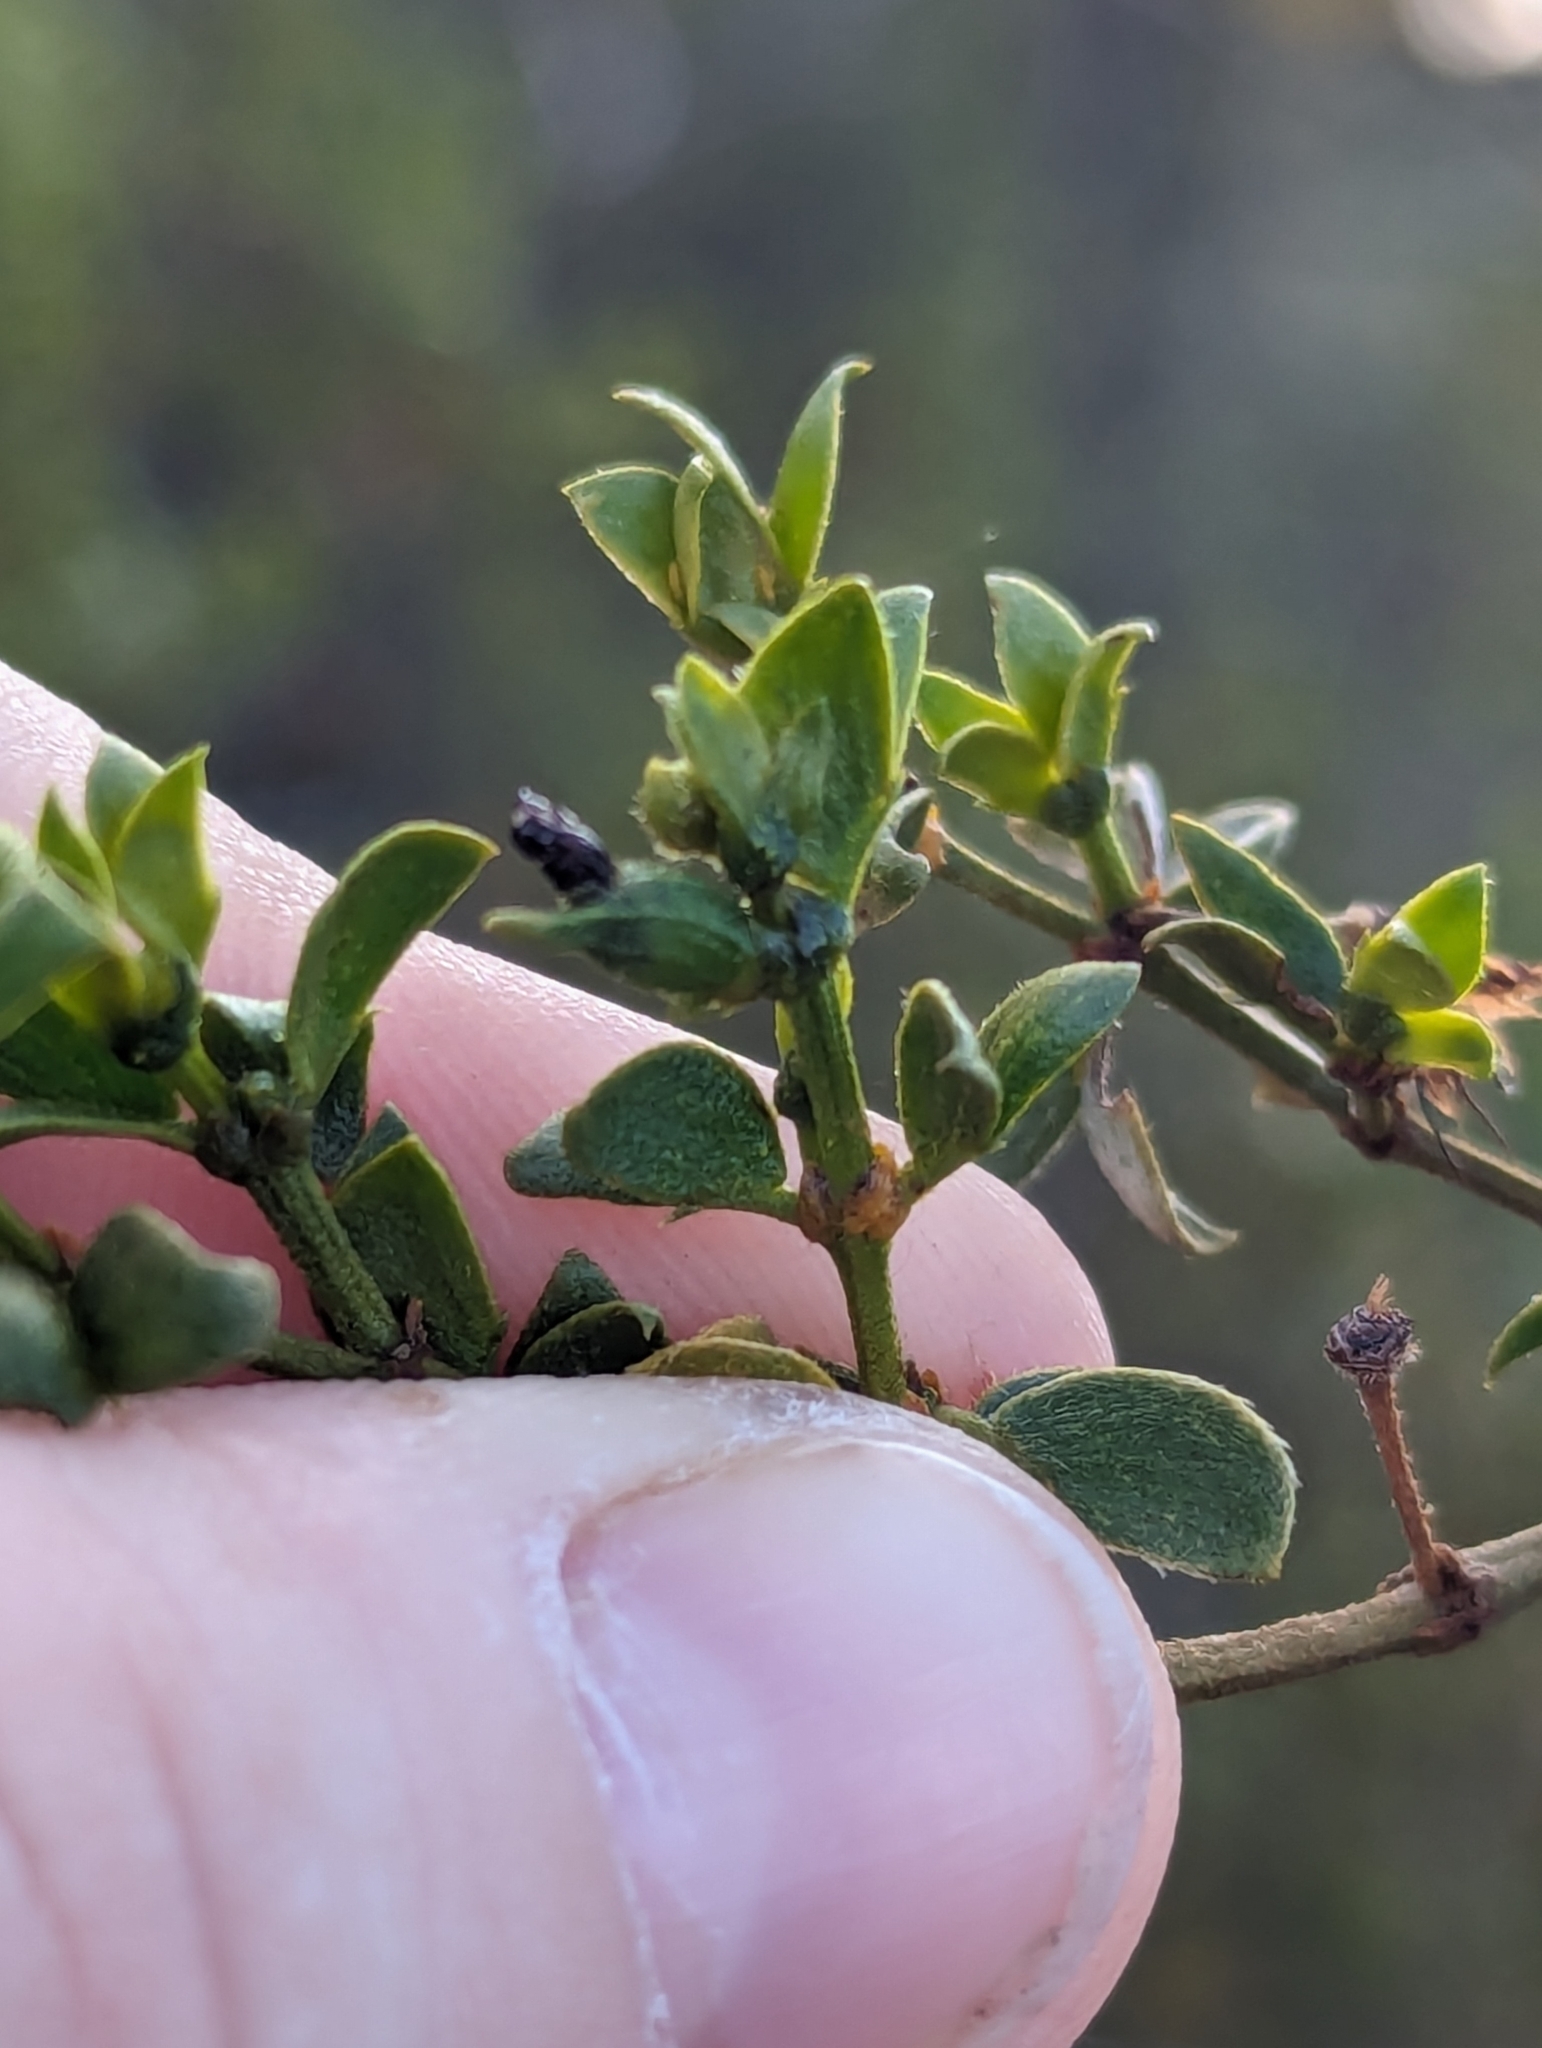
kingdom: Animalia
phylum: Arthropoda
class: Insecta
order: Diptera
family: Cecidomyiidae
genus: Asphondylia
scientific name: Asphondylia apicata
